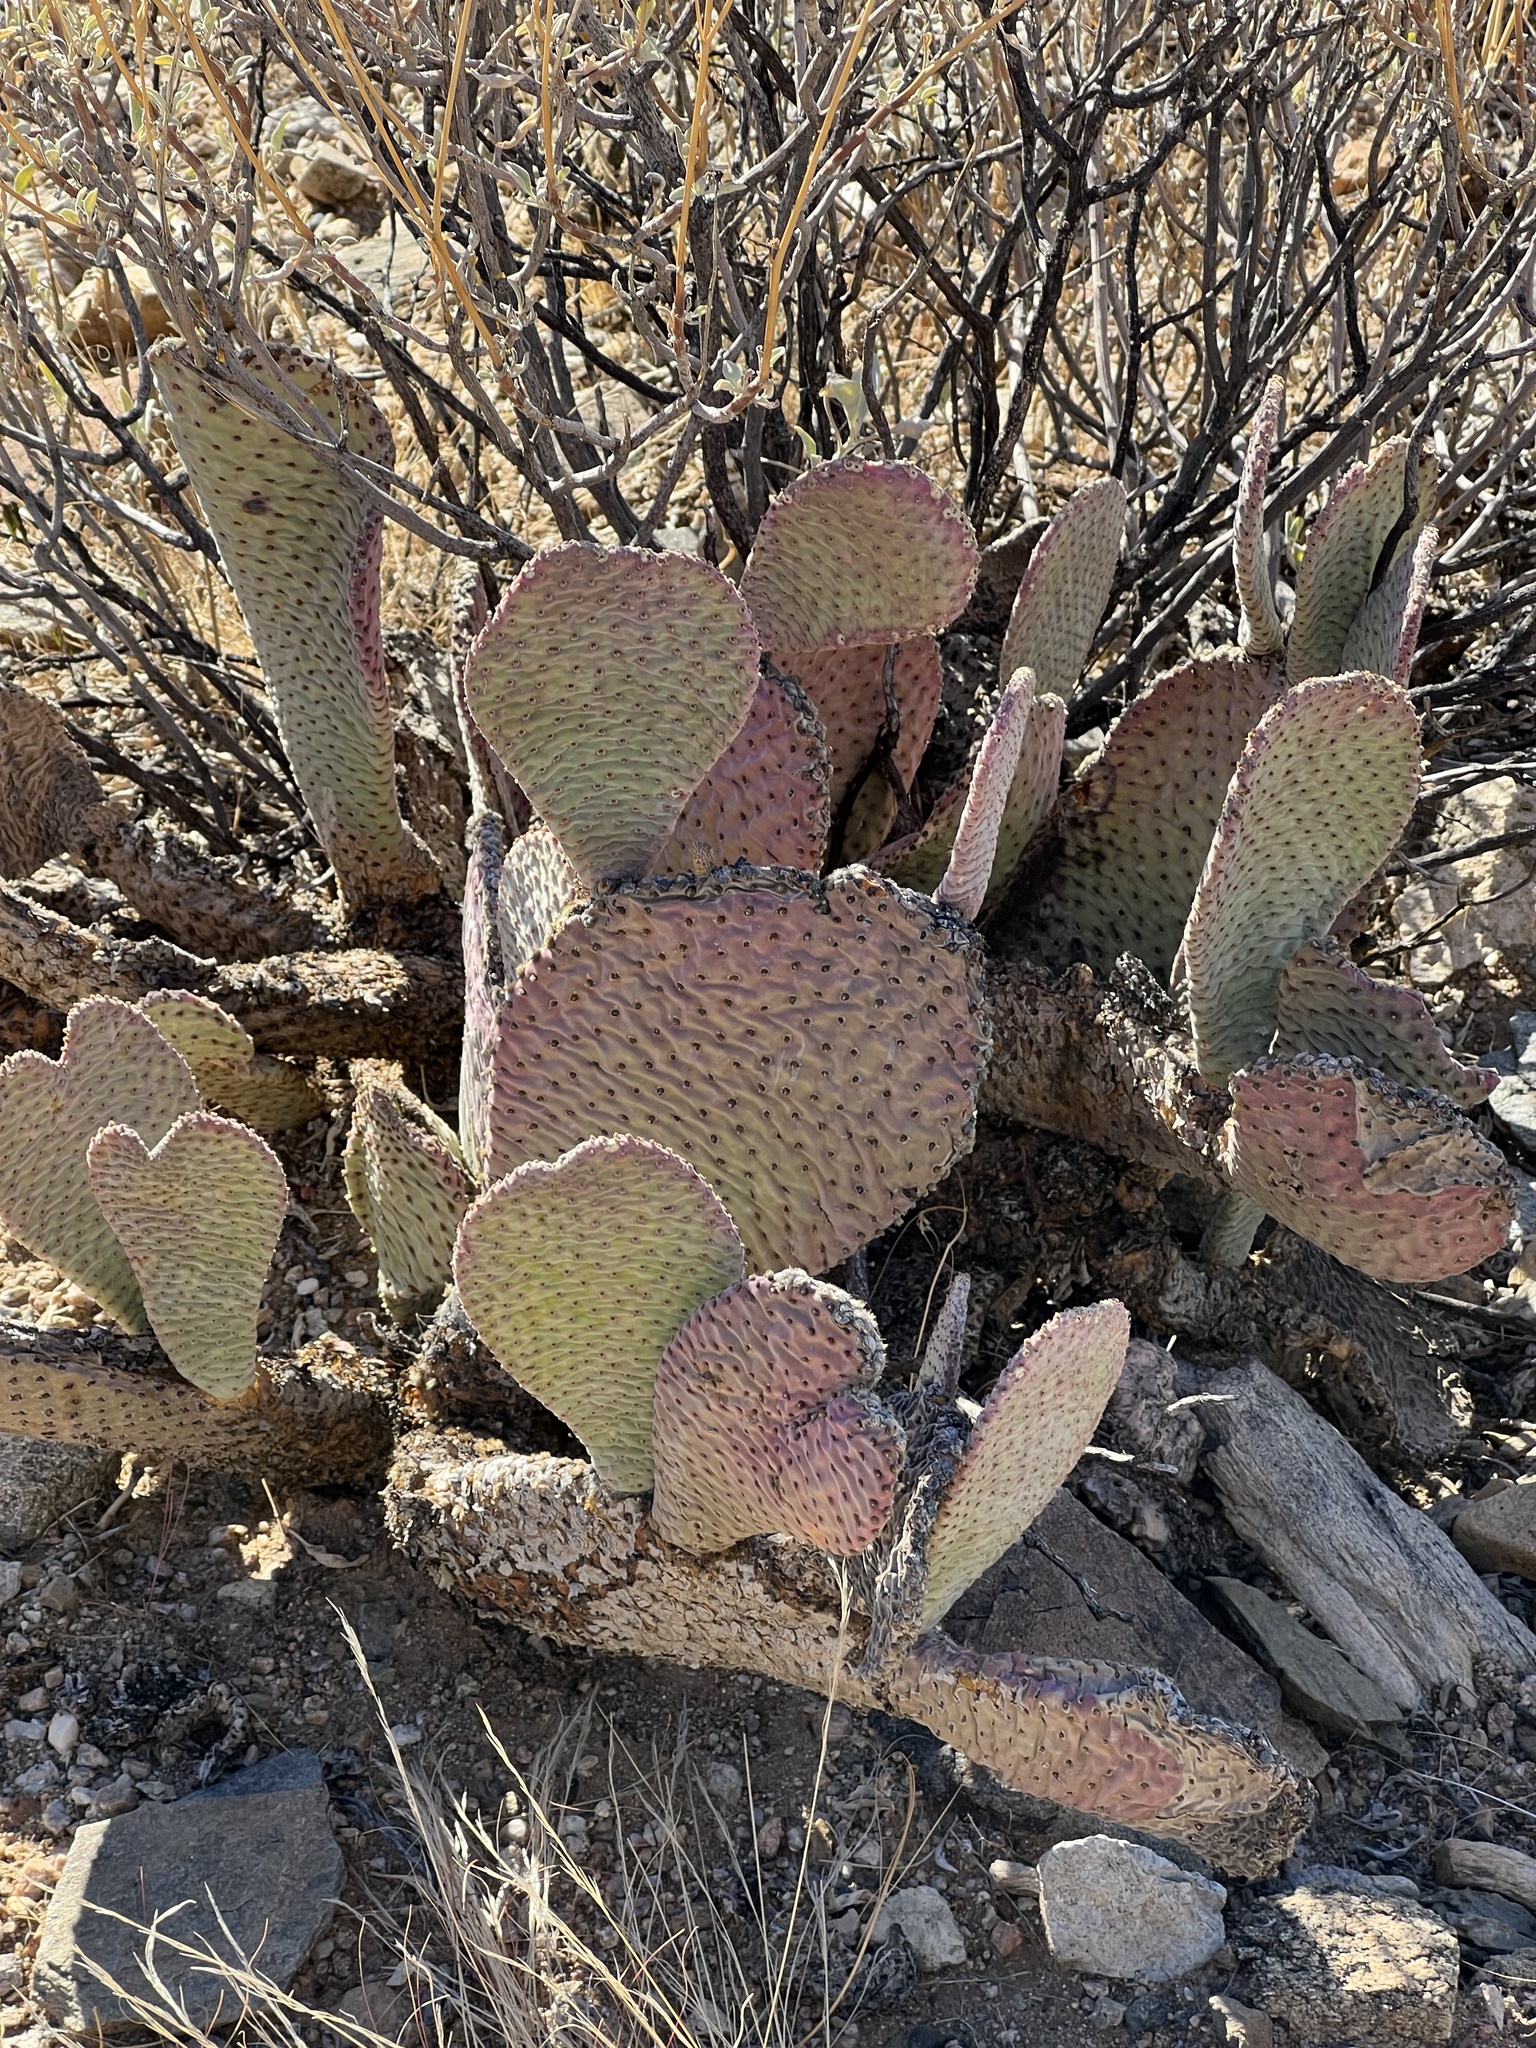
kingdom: Plantae
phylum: Tracheophyta
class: Magnoliopsida
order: Caryophyllales
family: Cactaceae
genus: Opuntia
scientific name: Opuntia basilaris
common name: Beavertail prickly-pear
